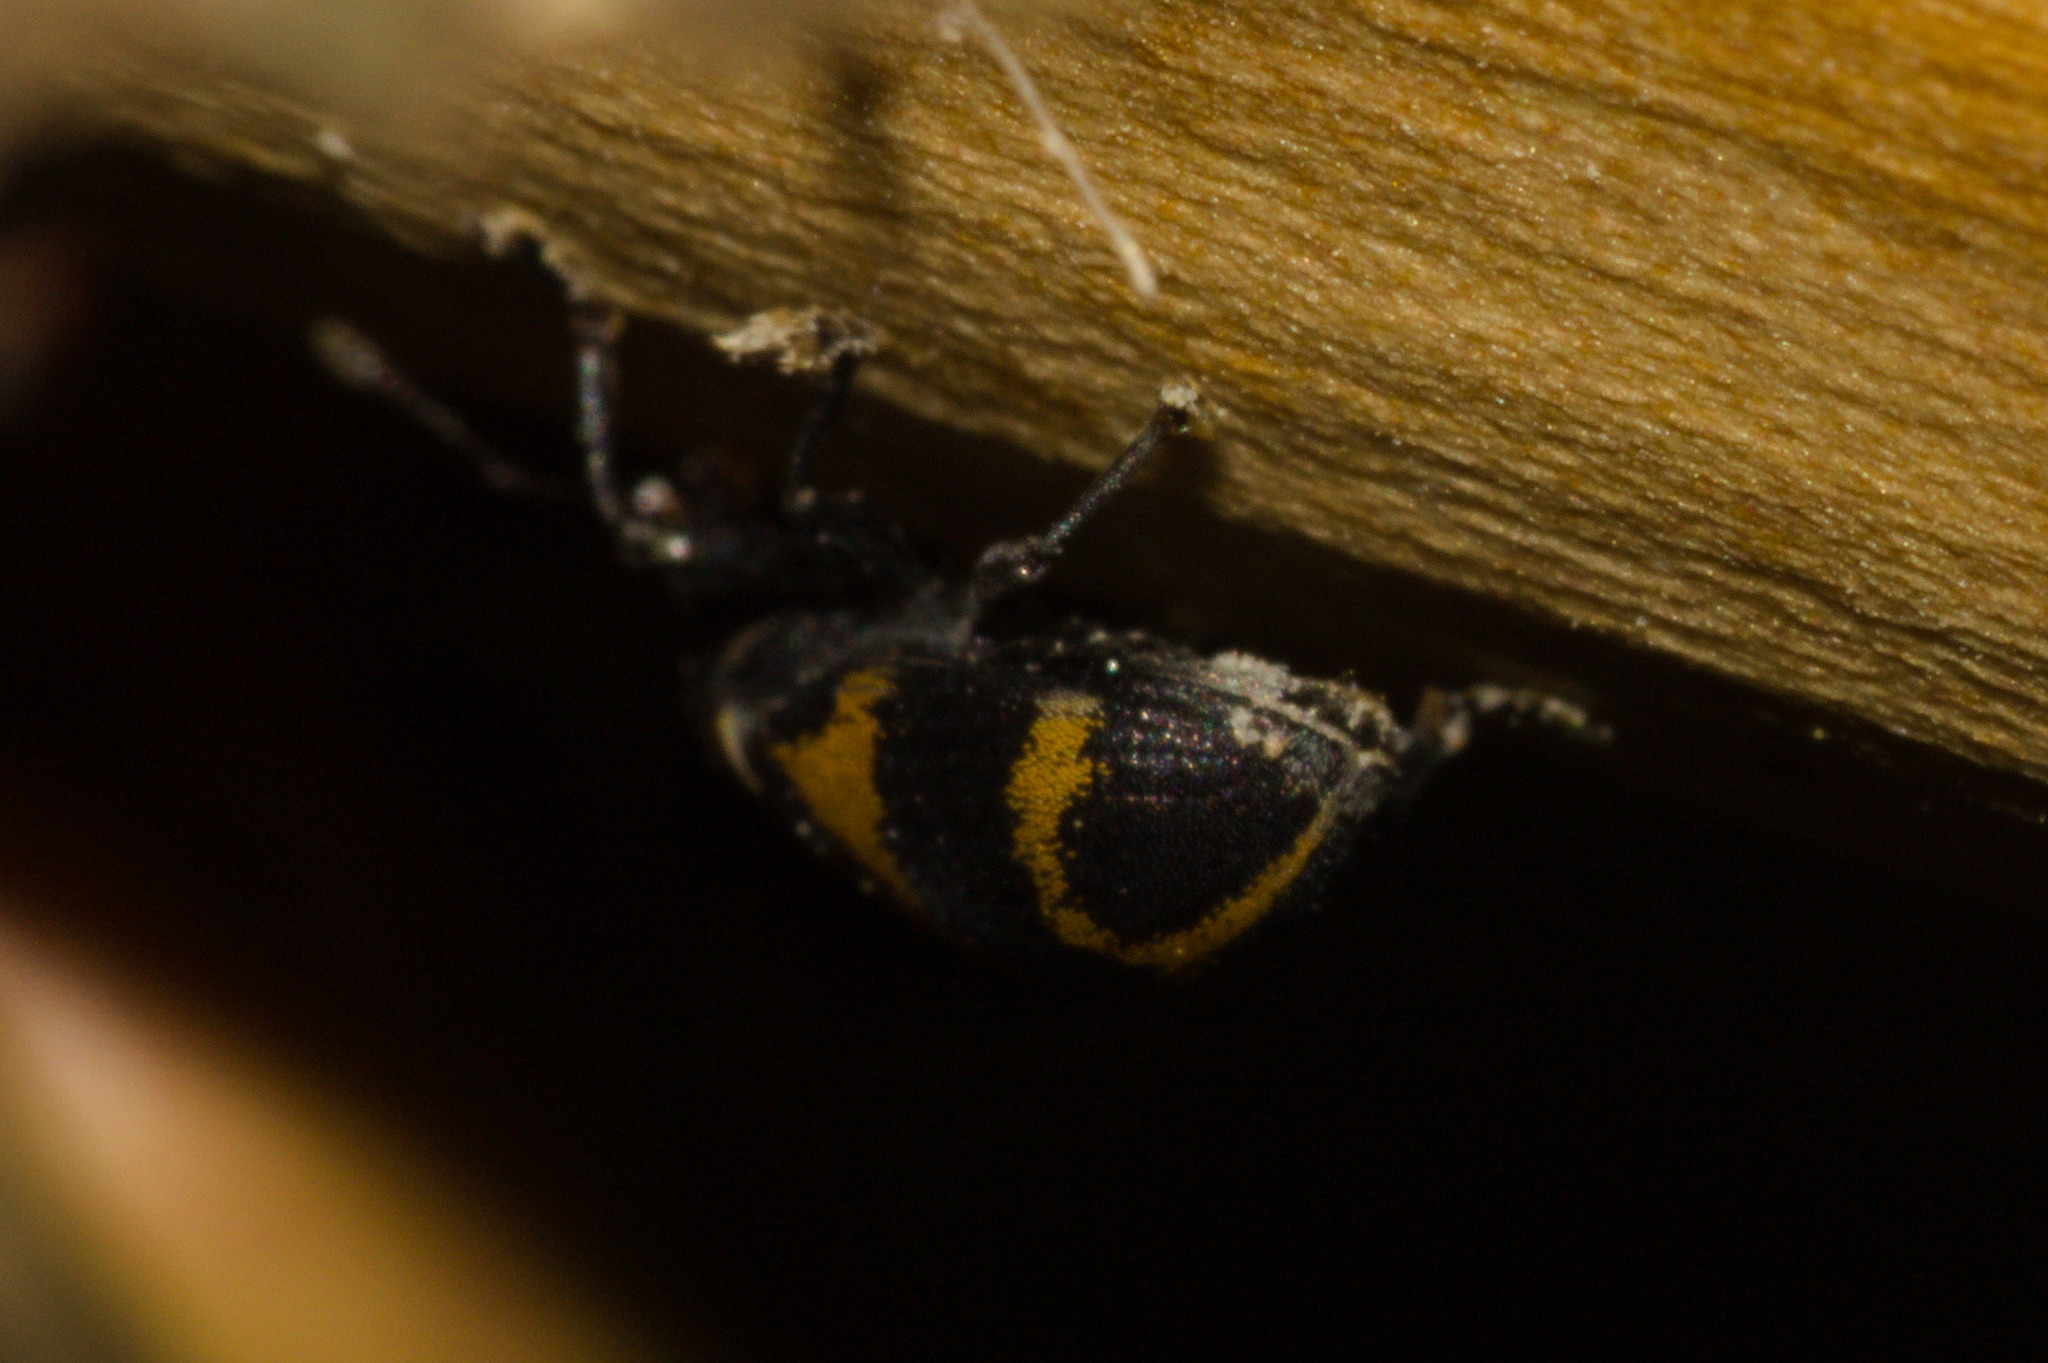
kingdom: Animalia
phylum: Arthropoda
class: Insecta
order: Coleoptera
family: Curculionidae
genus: Anchylorhynchus
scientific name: Anchylorhynchus tremolerasi
